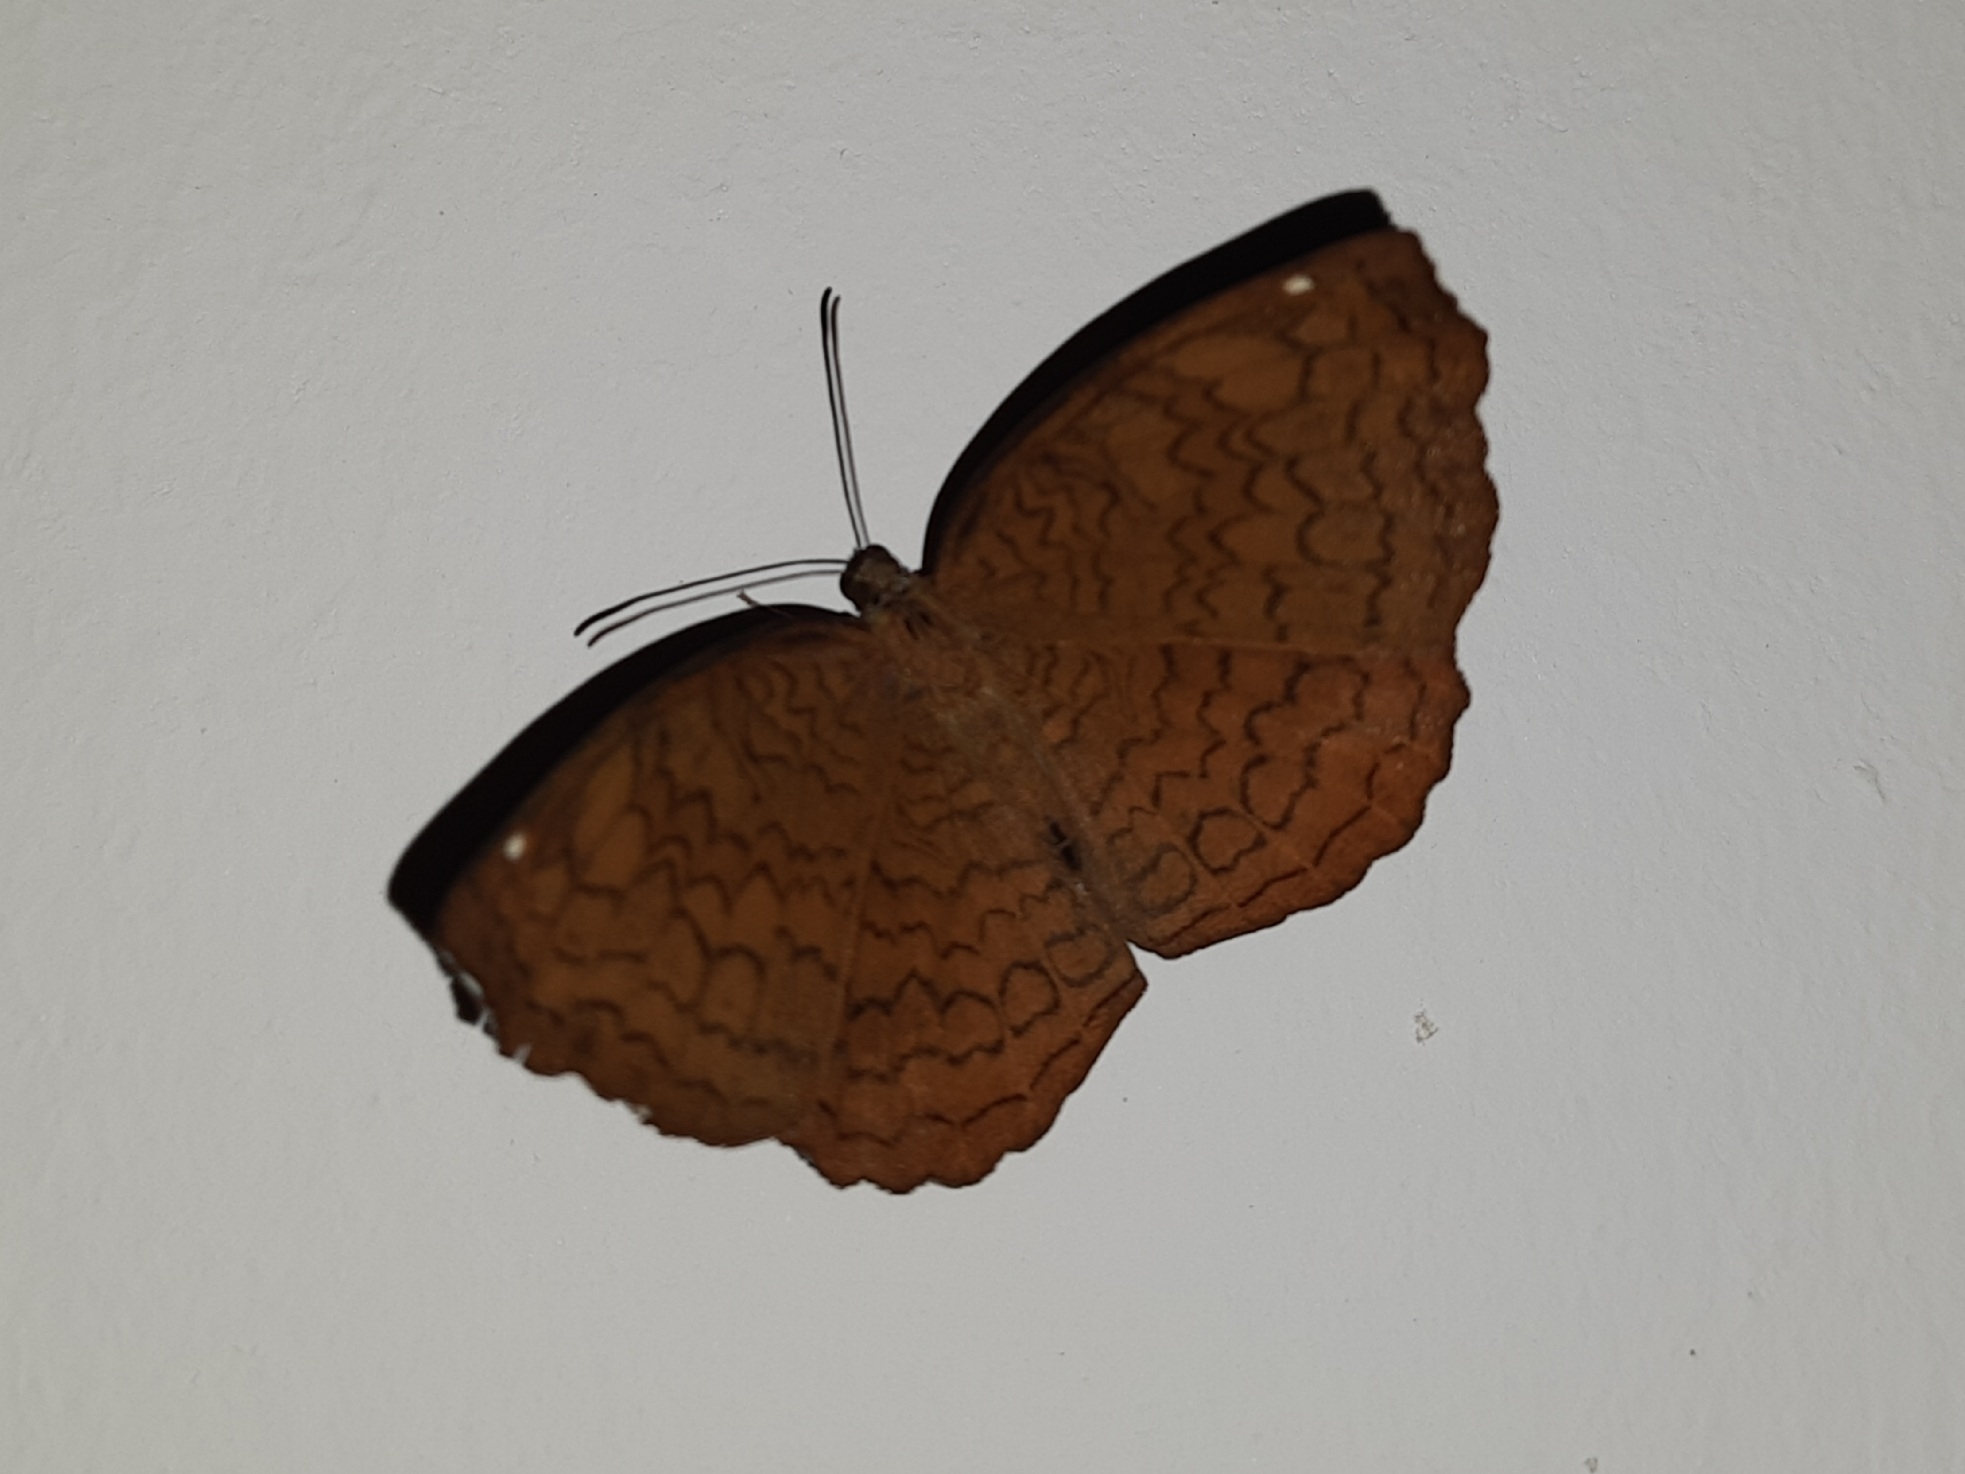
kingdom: Animalia
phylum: Arthropoda
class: Insecta
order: Lepidoptera
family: Nymphalidae
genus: Ariadne
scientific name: Ariadne merione
